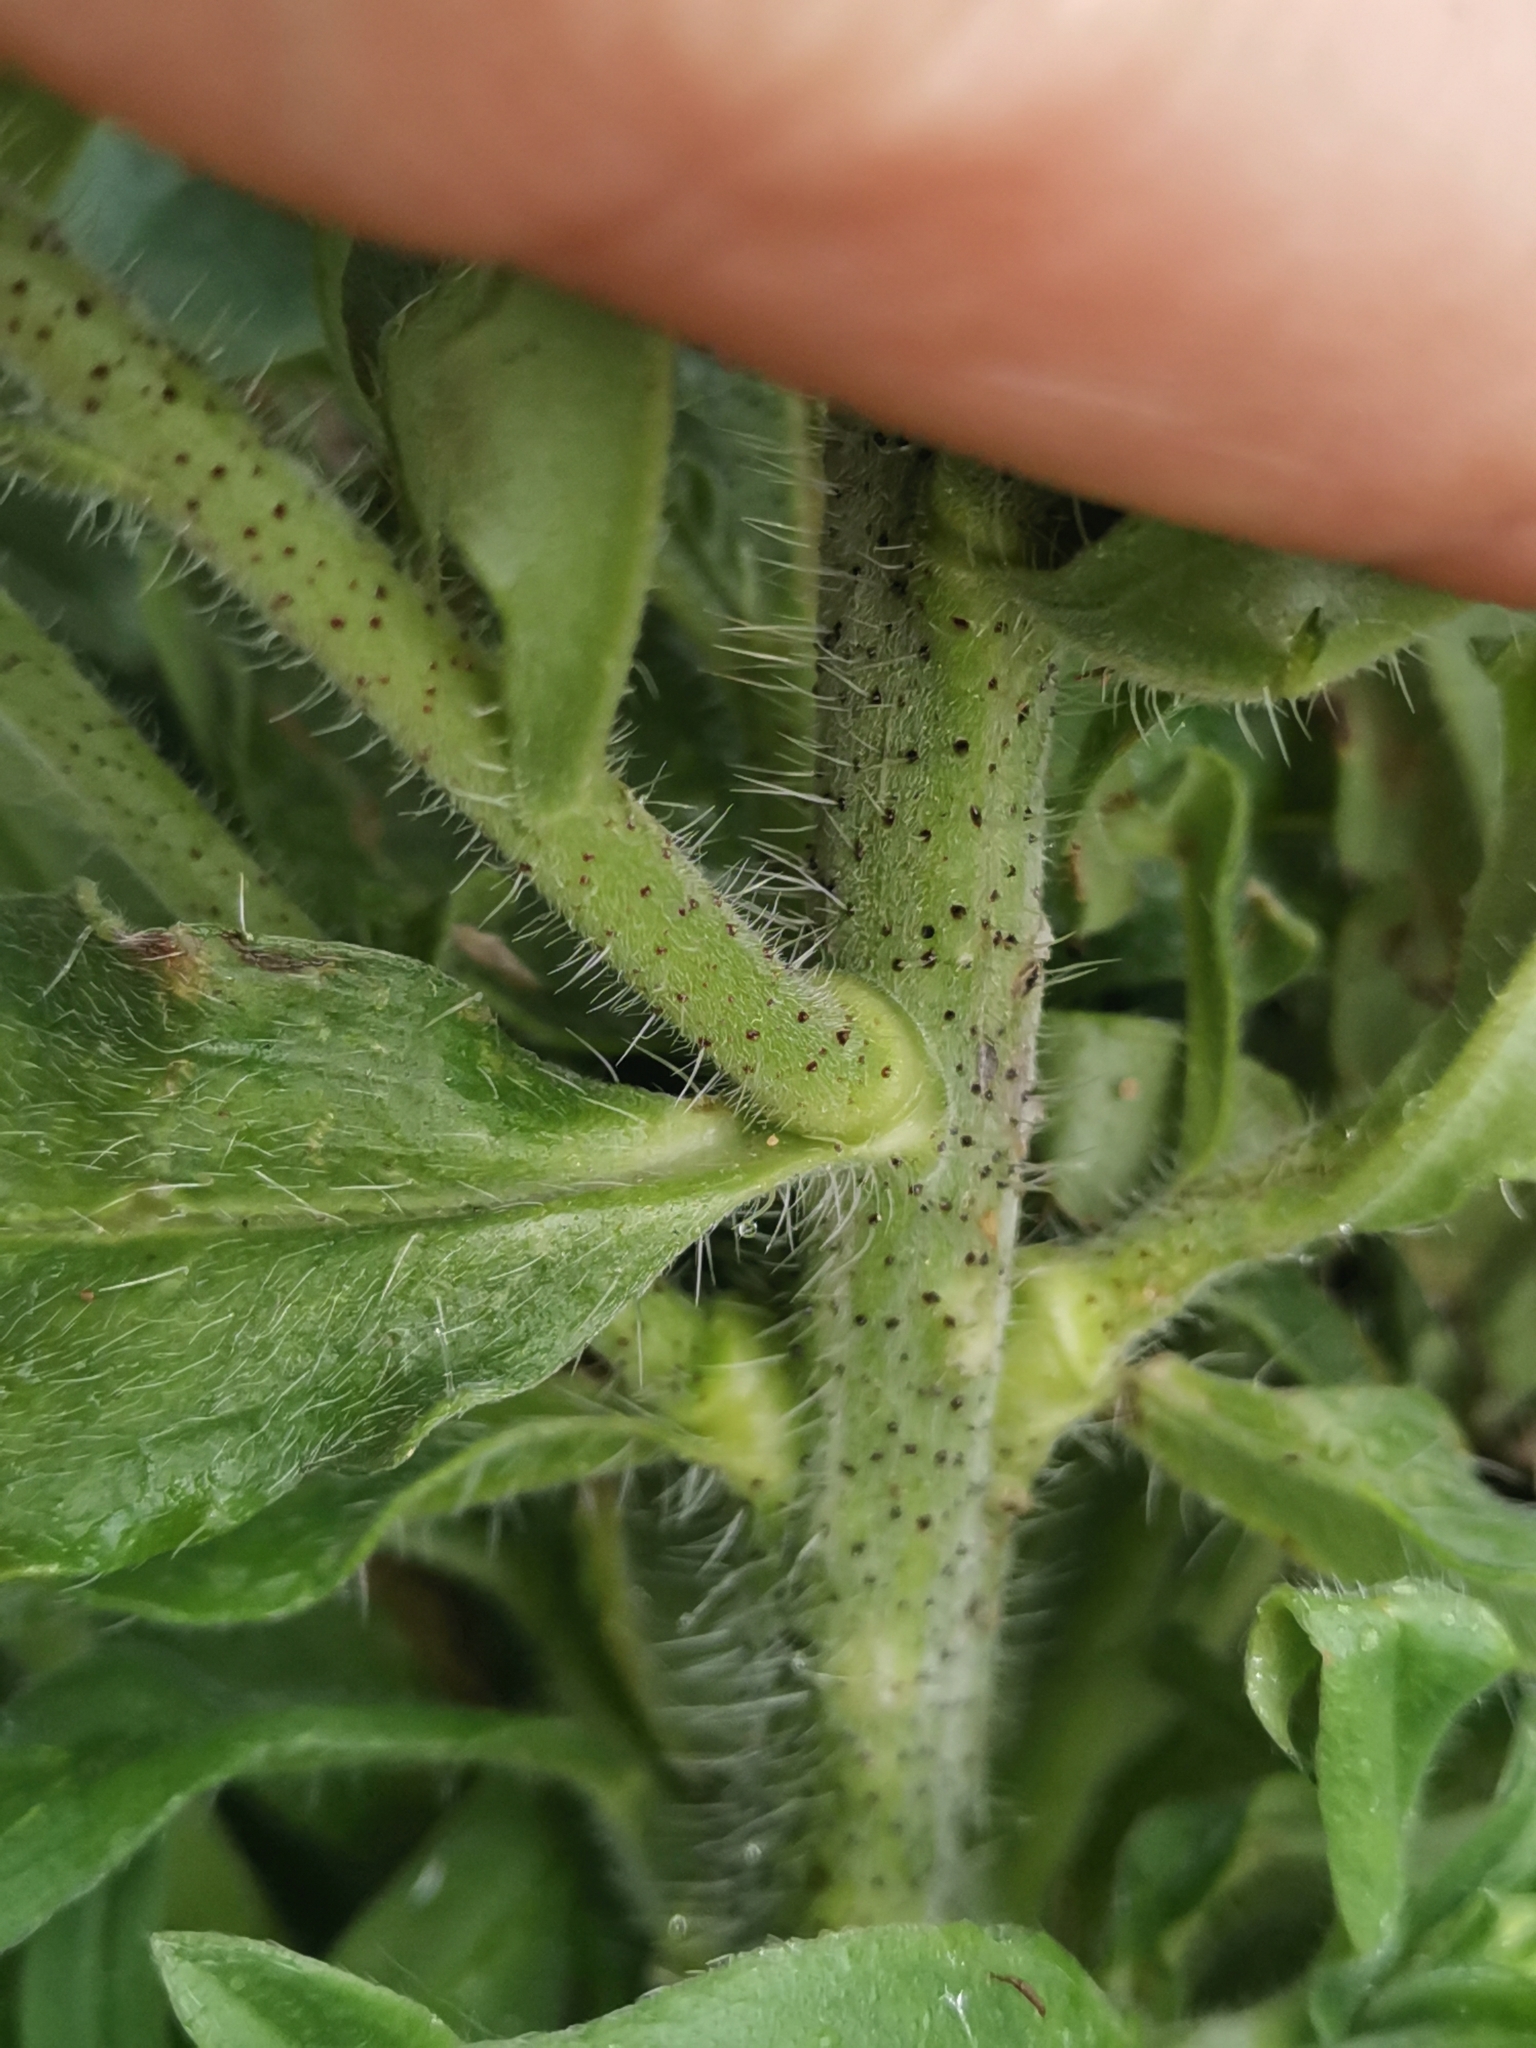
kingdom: Plantae
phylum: Tracheophyta
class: Magnoliopsida
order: Boraginales
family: Boraginaceae
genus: Echium
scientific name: Echium vulgare
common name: Common viper's bugloss
